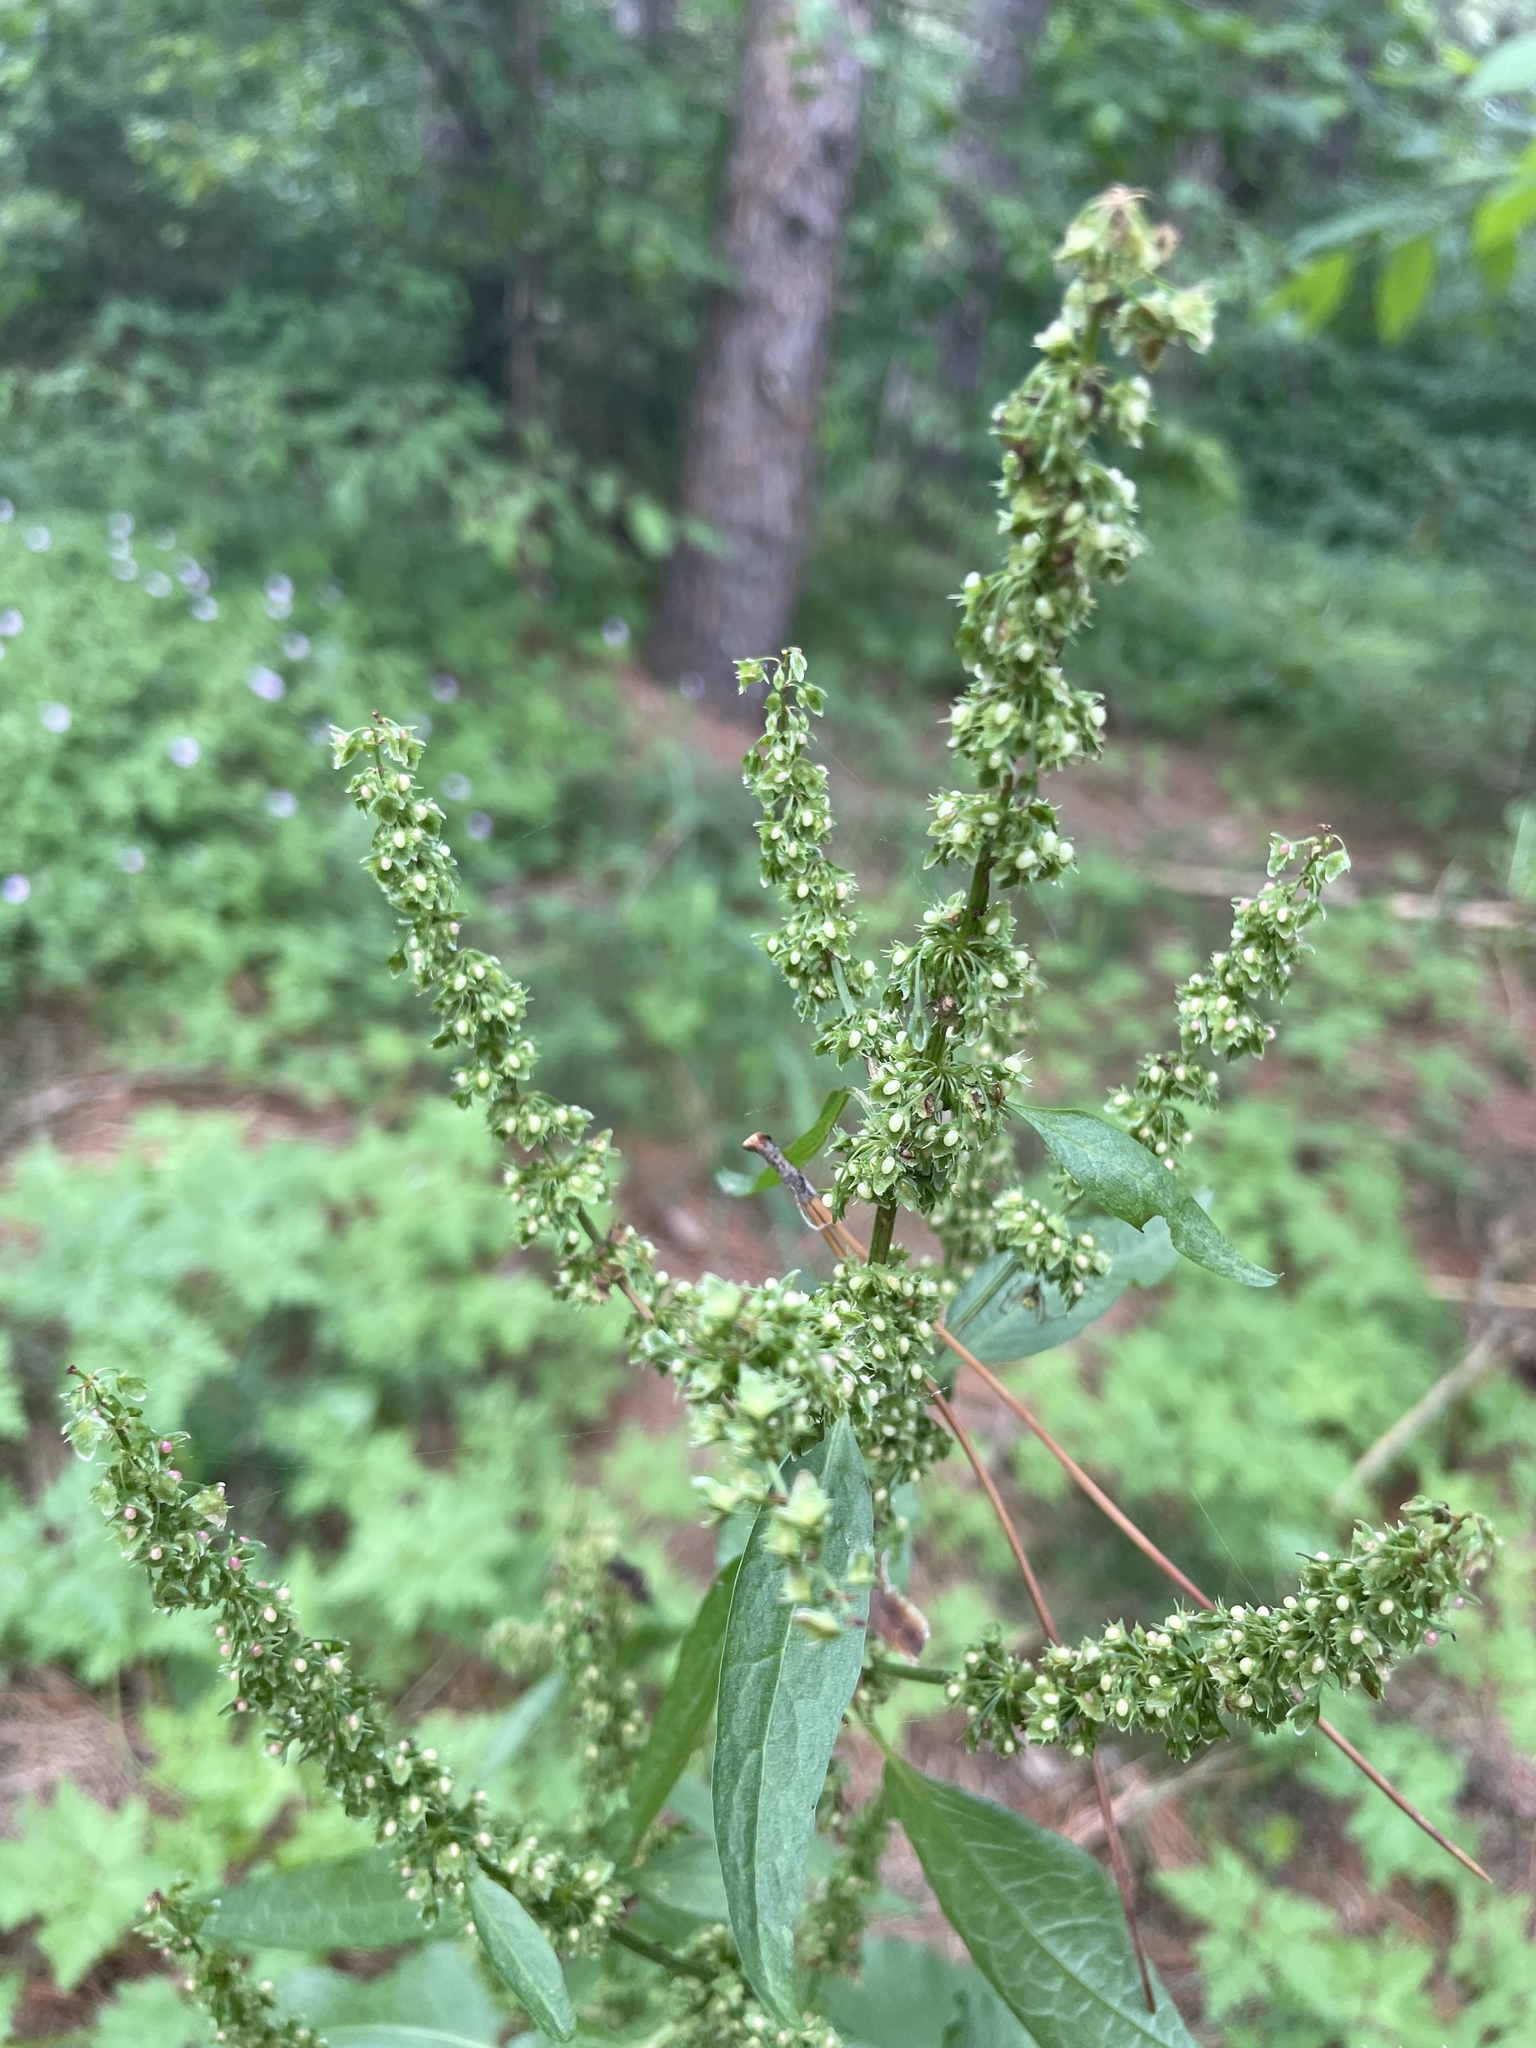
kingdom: Plantae
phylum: Tracheophyta
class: Magnoliopsida
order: Caryophyllales
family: Polygonaceae
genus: Rumex
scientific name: Rumex obtusifolius
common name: Bitter dock
